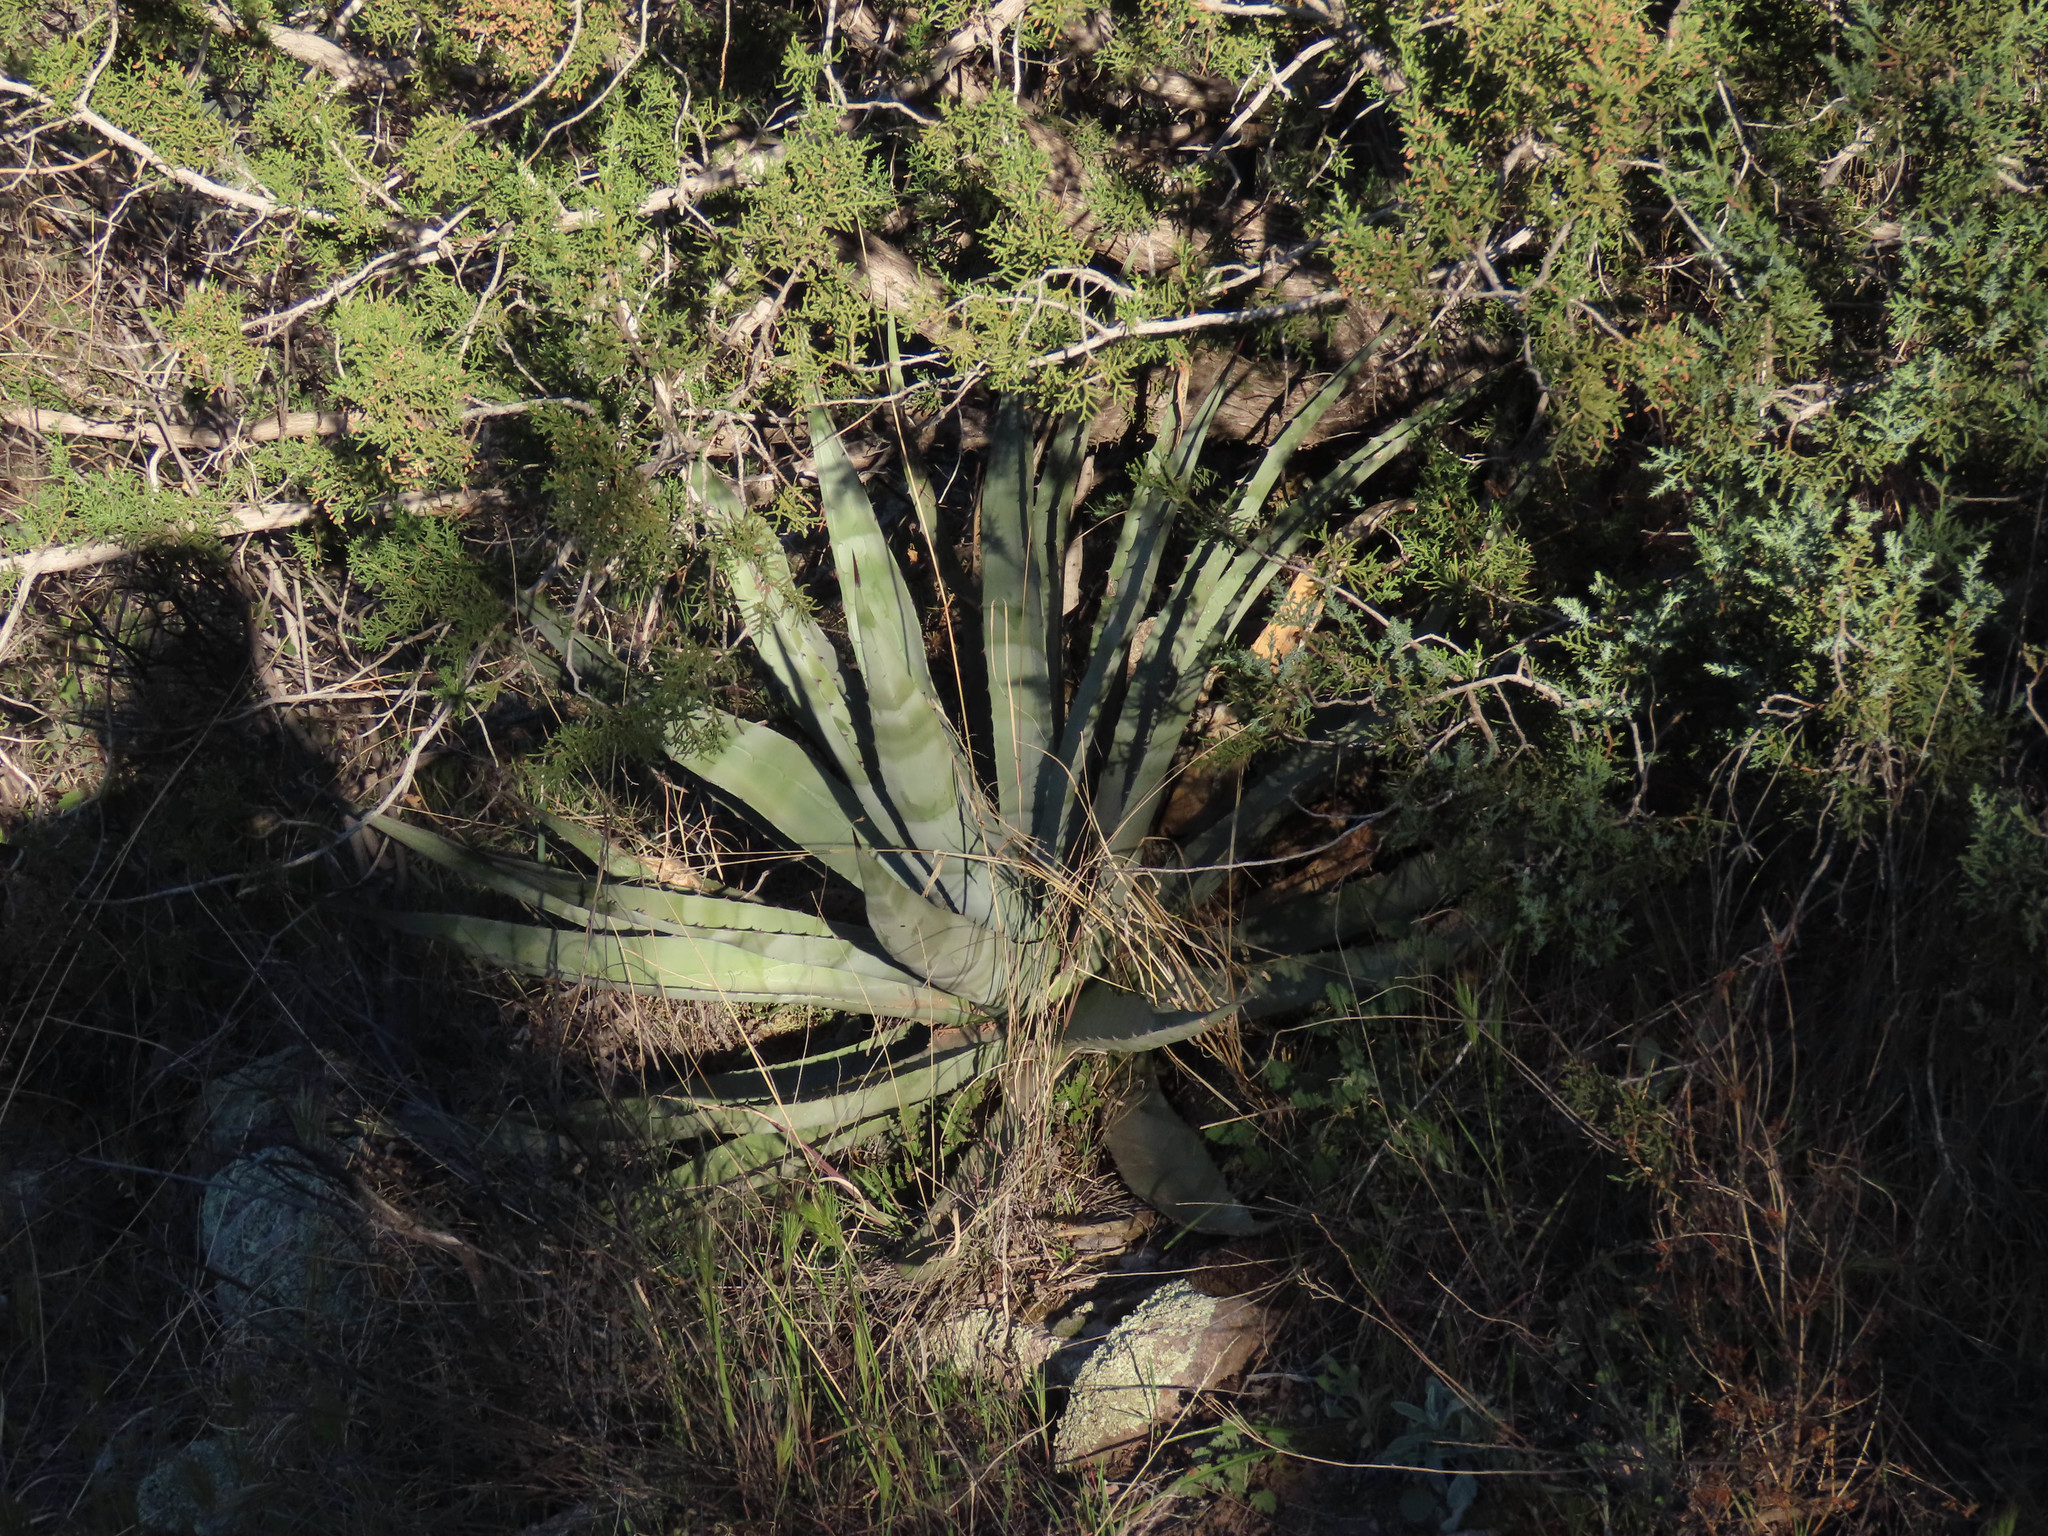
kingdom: Plantae
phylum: Tracheophyta
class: Liliopsida
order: Asparagales
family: Asparagaceae
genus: Agave
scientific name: Agave palmeri
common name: Palmer agave
